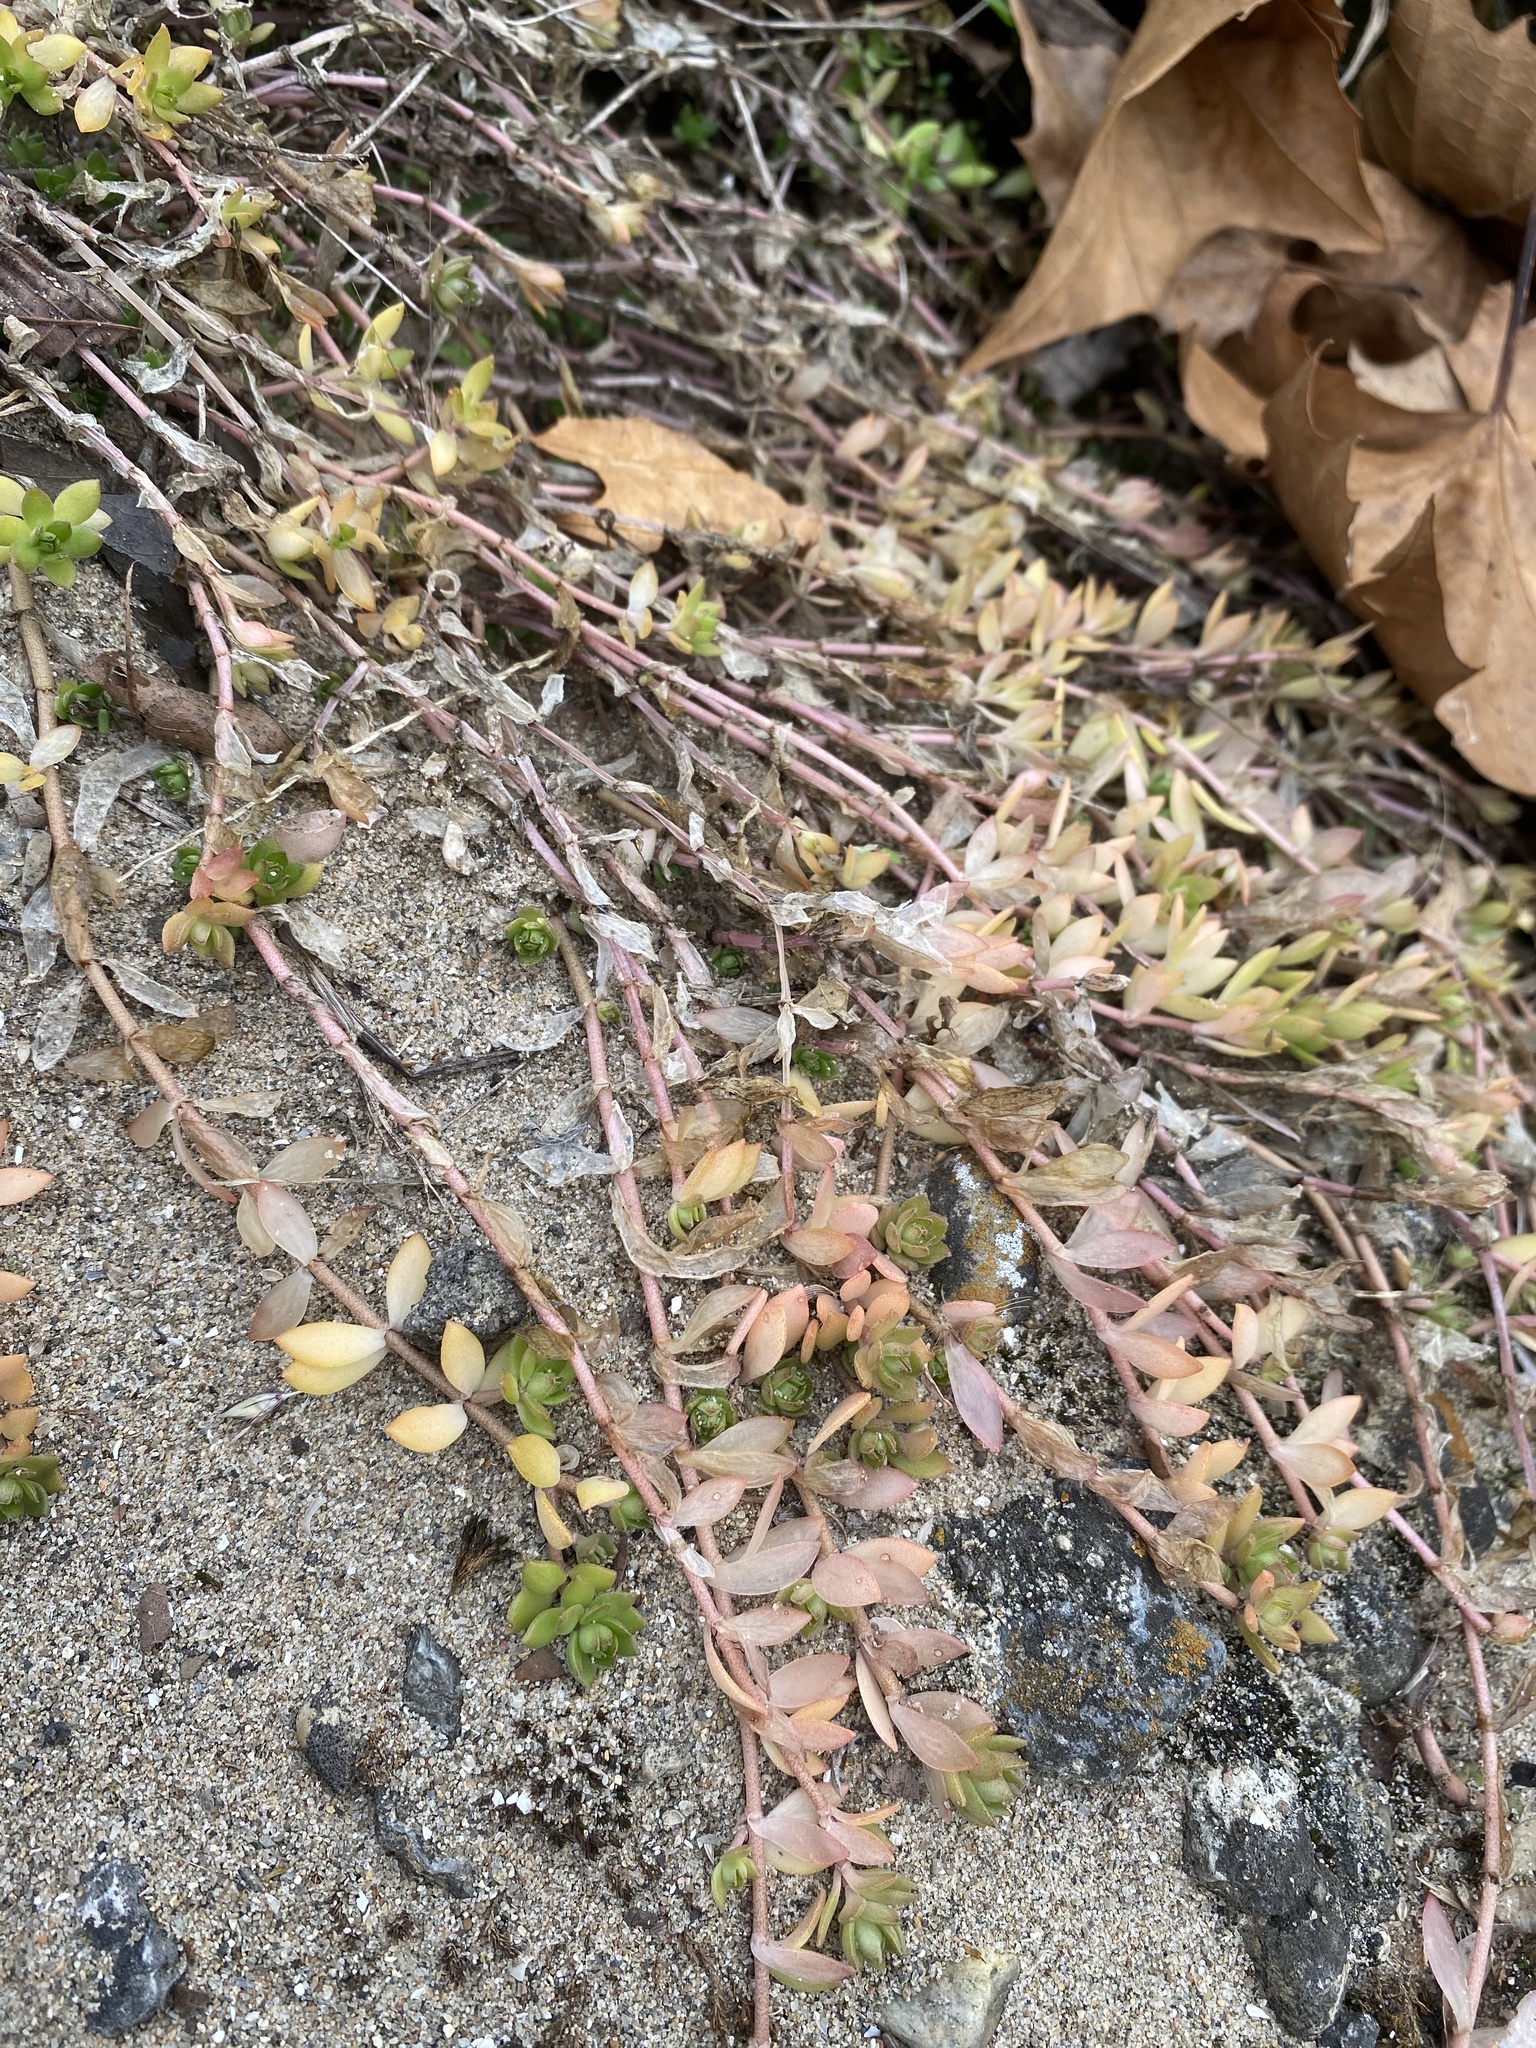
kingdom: Plantae
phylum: Tracheophyta
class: Magnoliopsida
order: Saxifragales
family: Crassulaceae
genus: Sedum
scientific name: Sedum sarmentosum
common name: Stringy stonecrop
